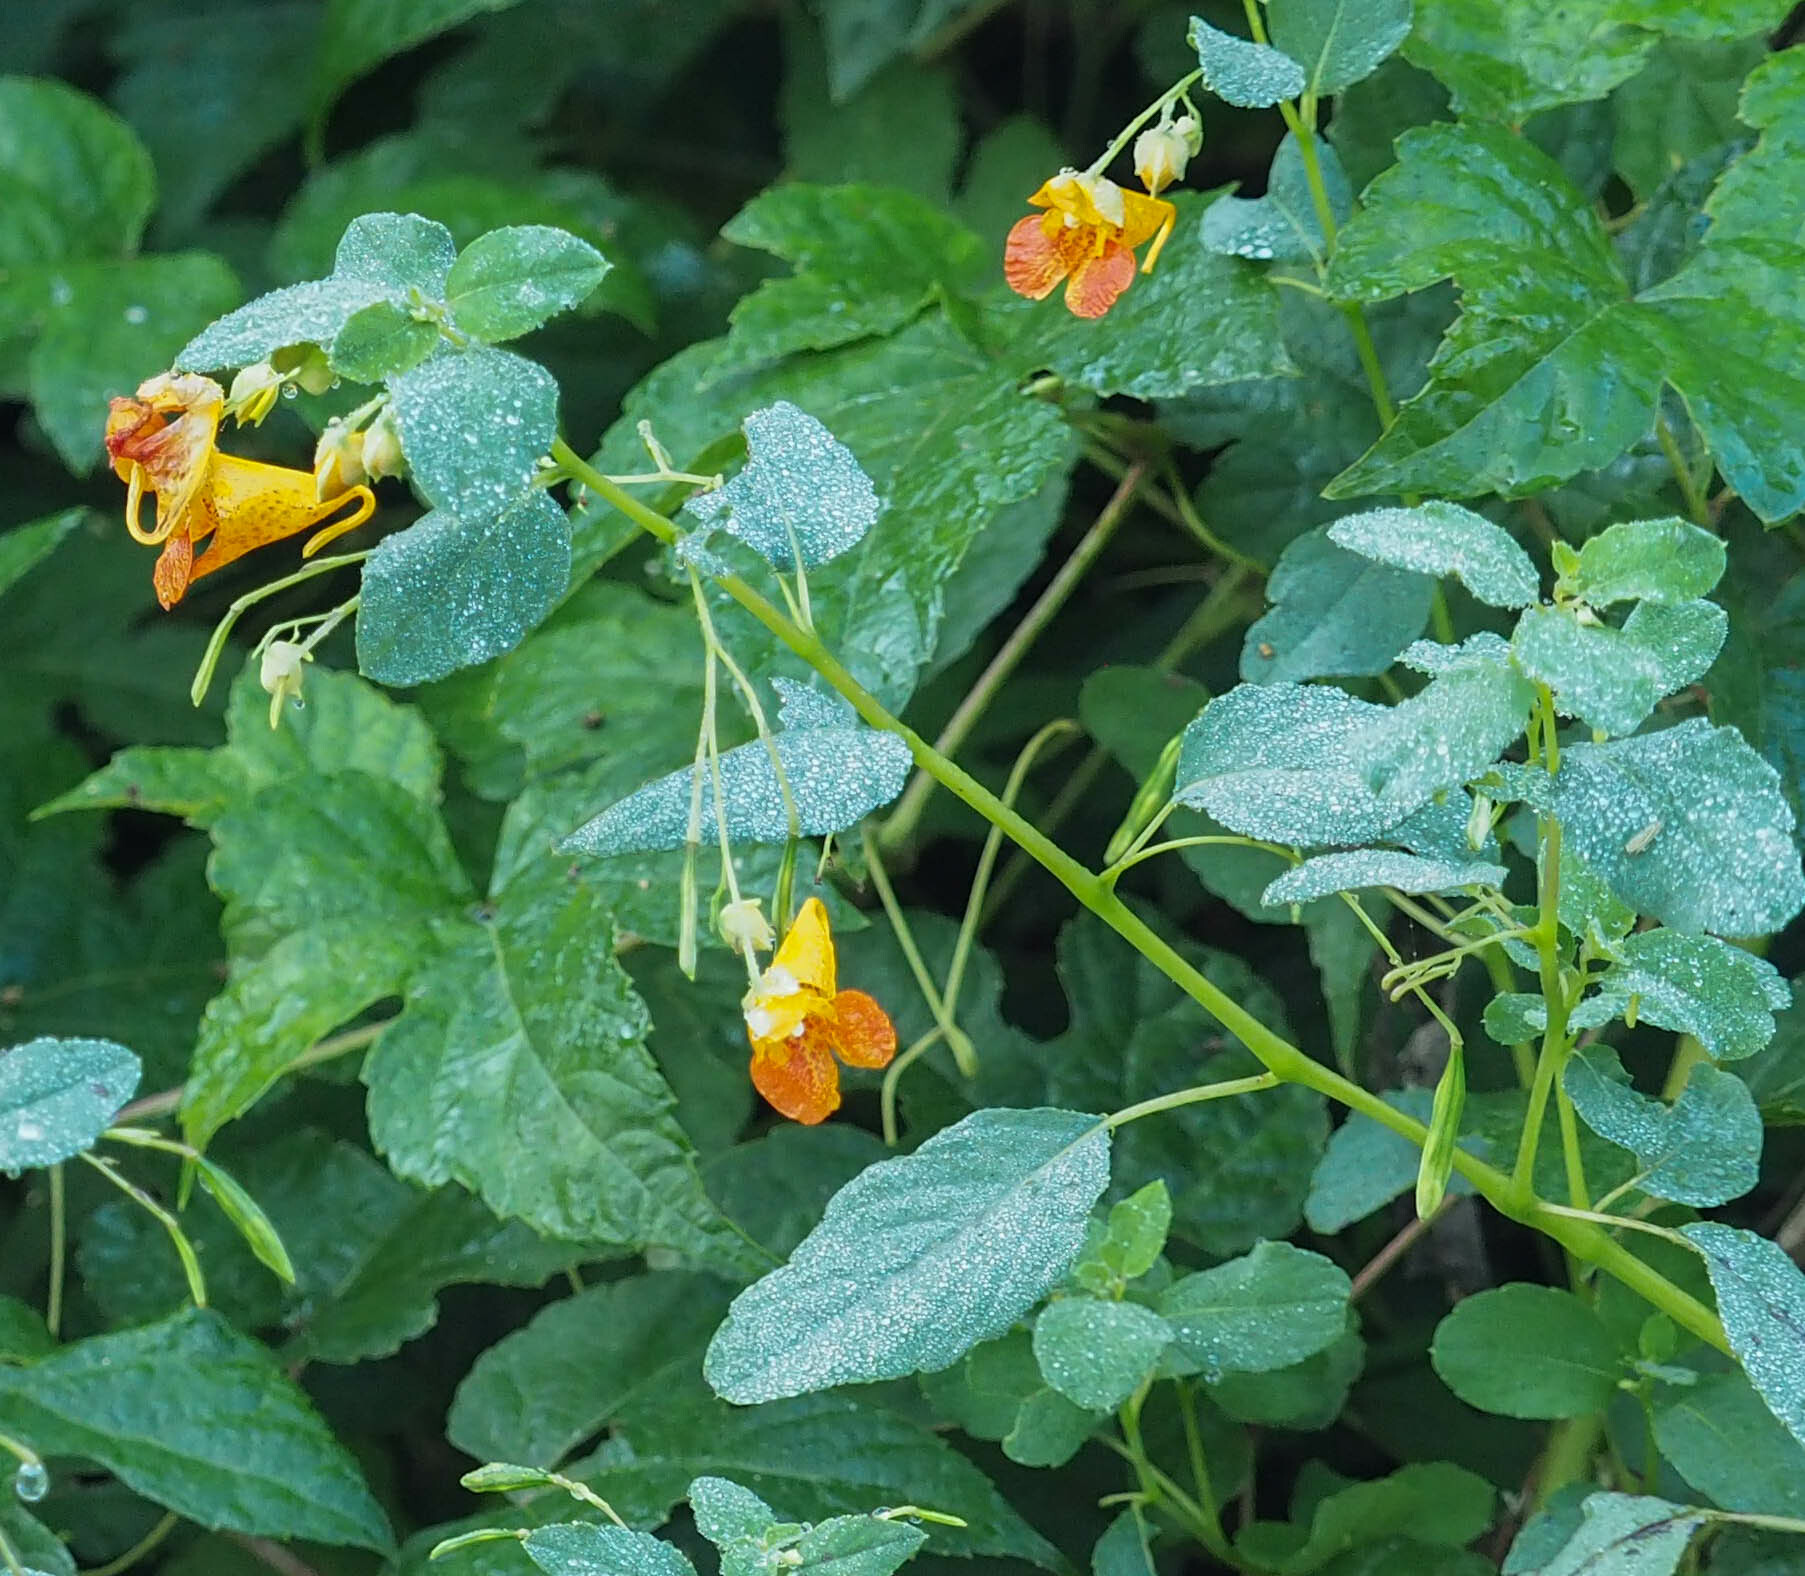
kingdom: Plantae
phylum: Tracheophyta
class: Magnoliopsida
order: Ericales
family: Balsaminaceae
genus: Impatiens
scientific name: Impatiens capensis
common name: Orange balsam
